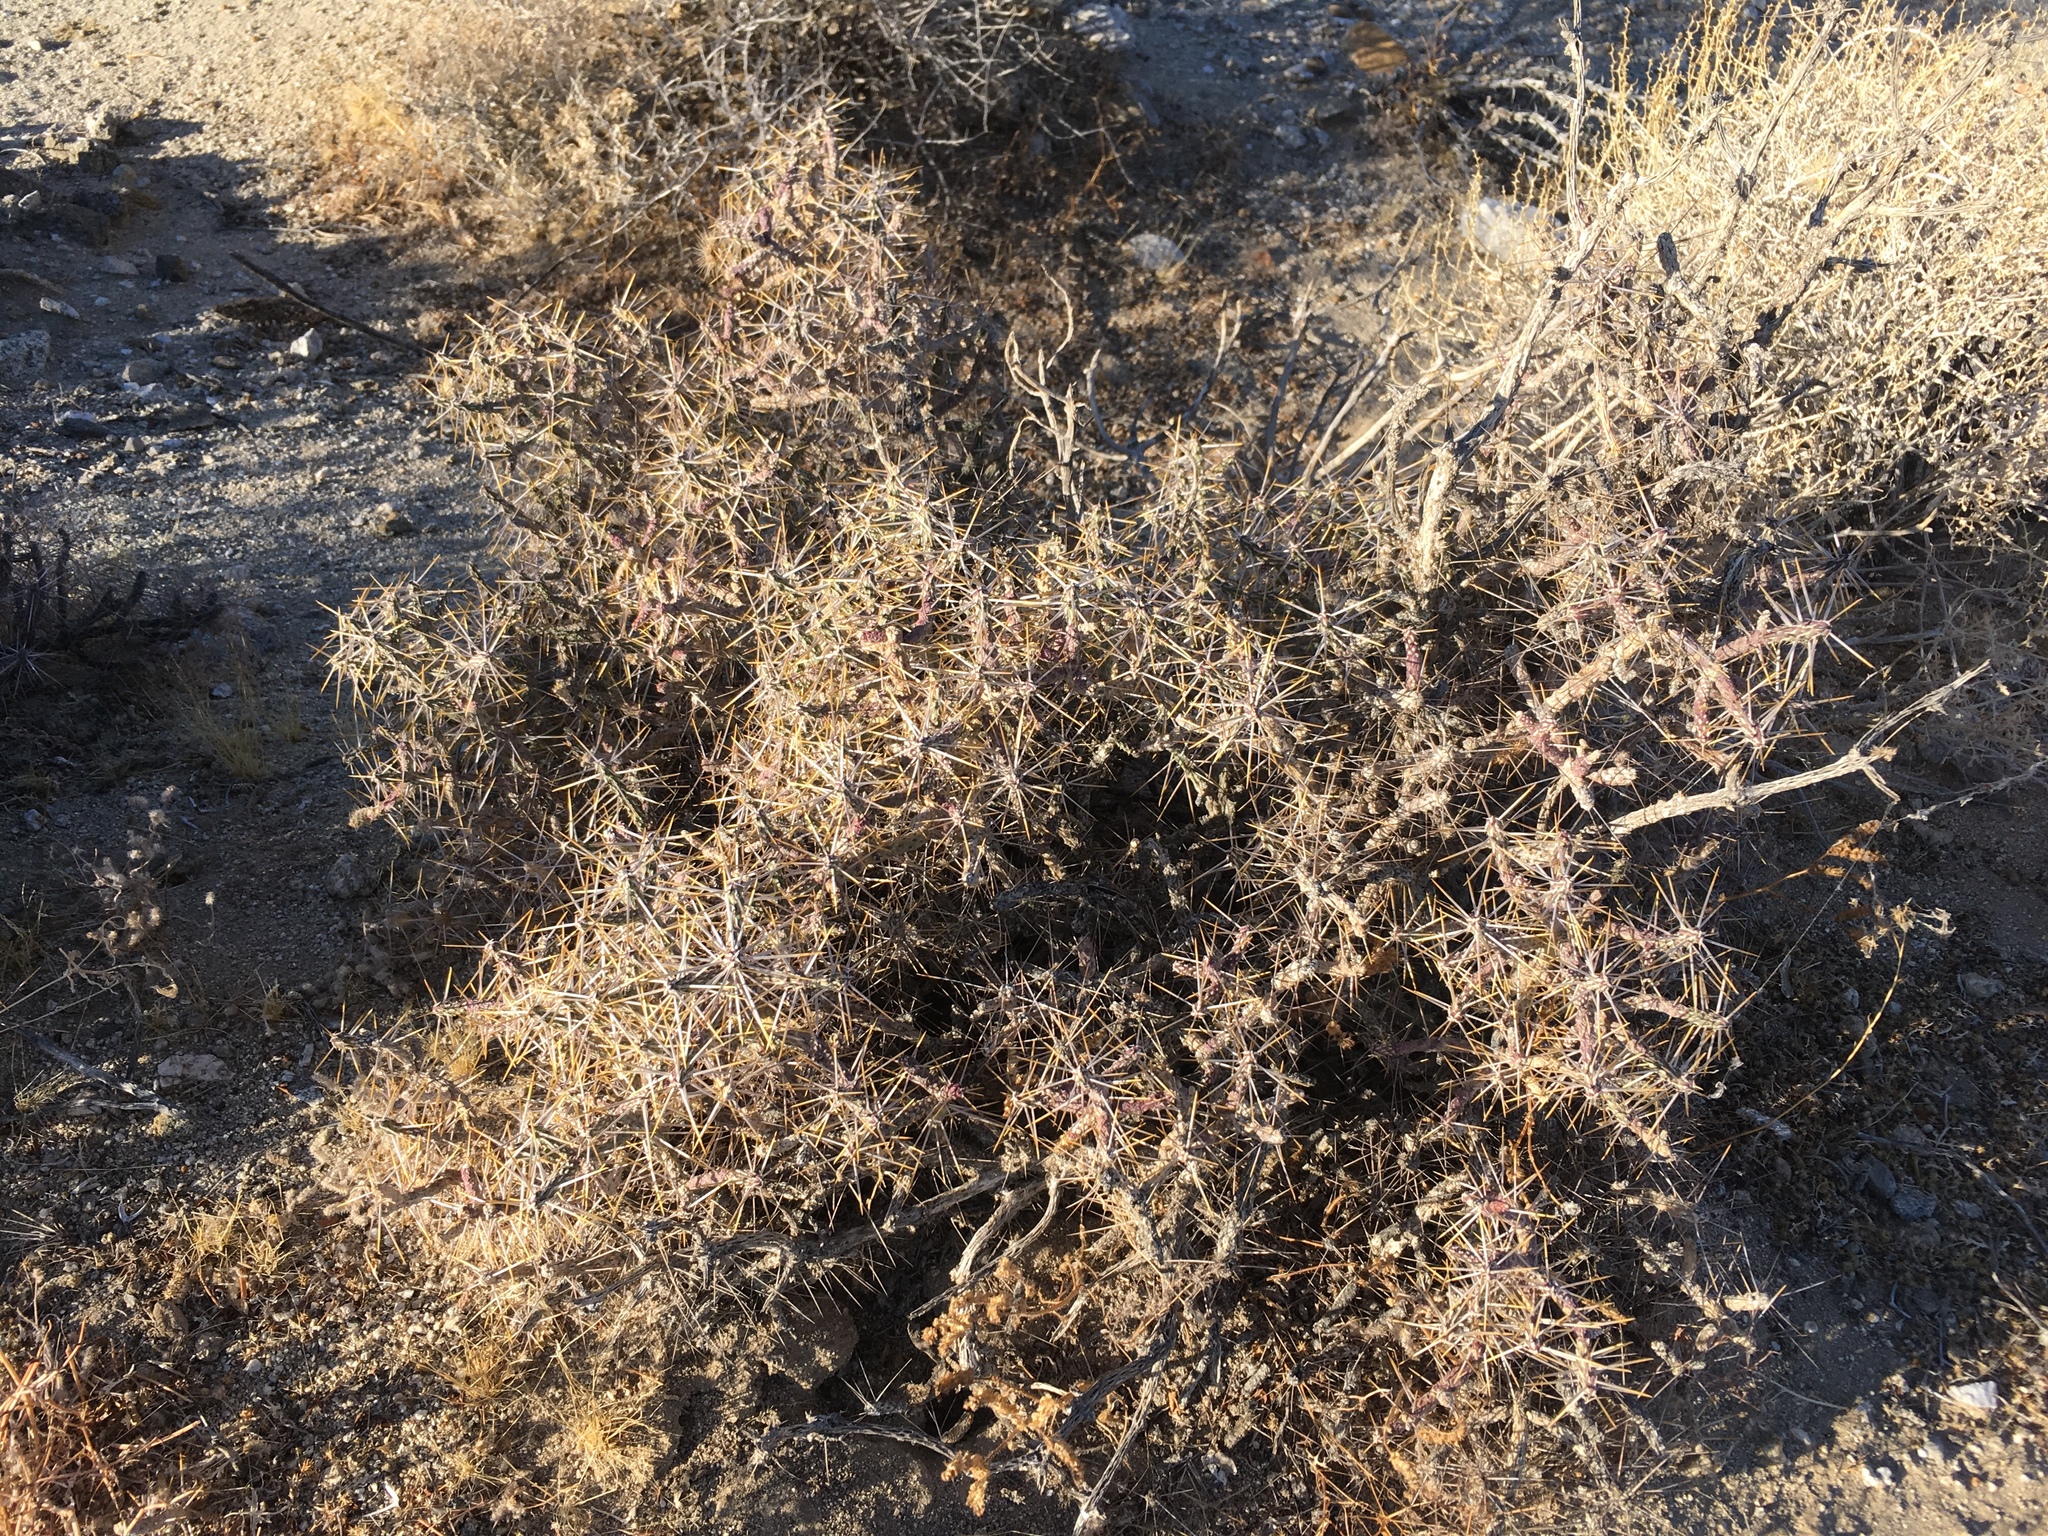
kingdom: Plantae
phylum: Tracheophyta
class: Magnoliopsida
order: Caryophyllales
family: Cactaceae
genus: Cylindropuntia
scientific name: Cylindropuntia ramosissima
